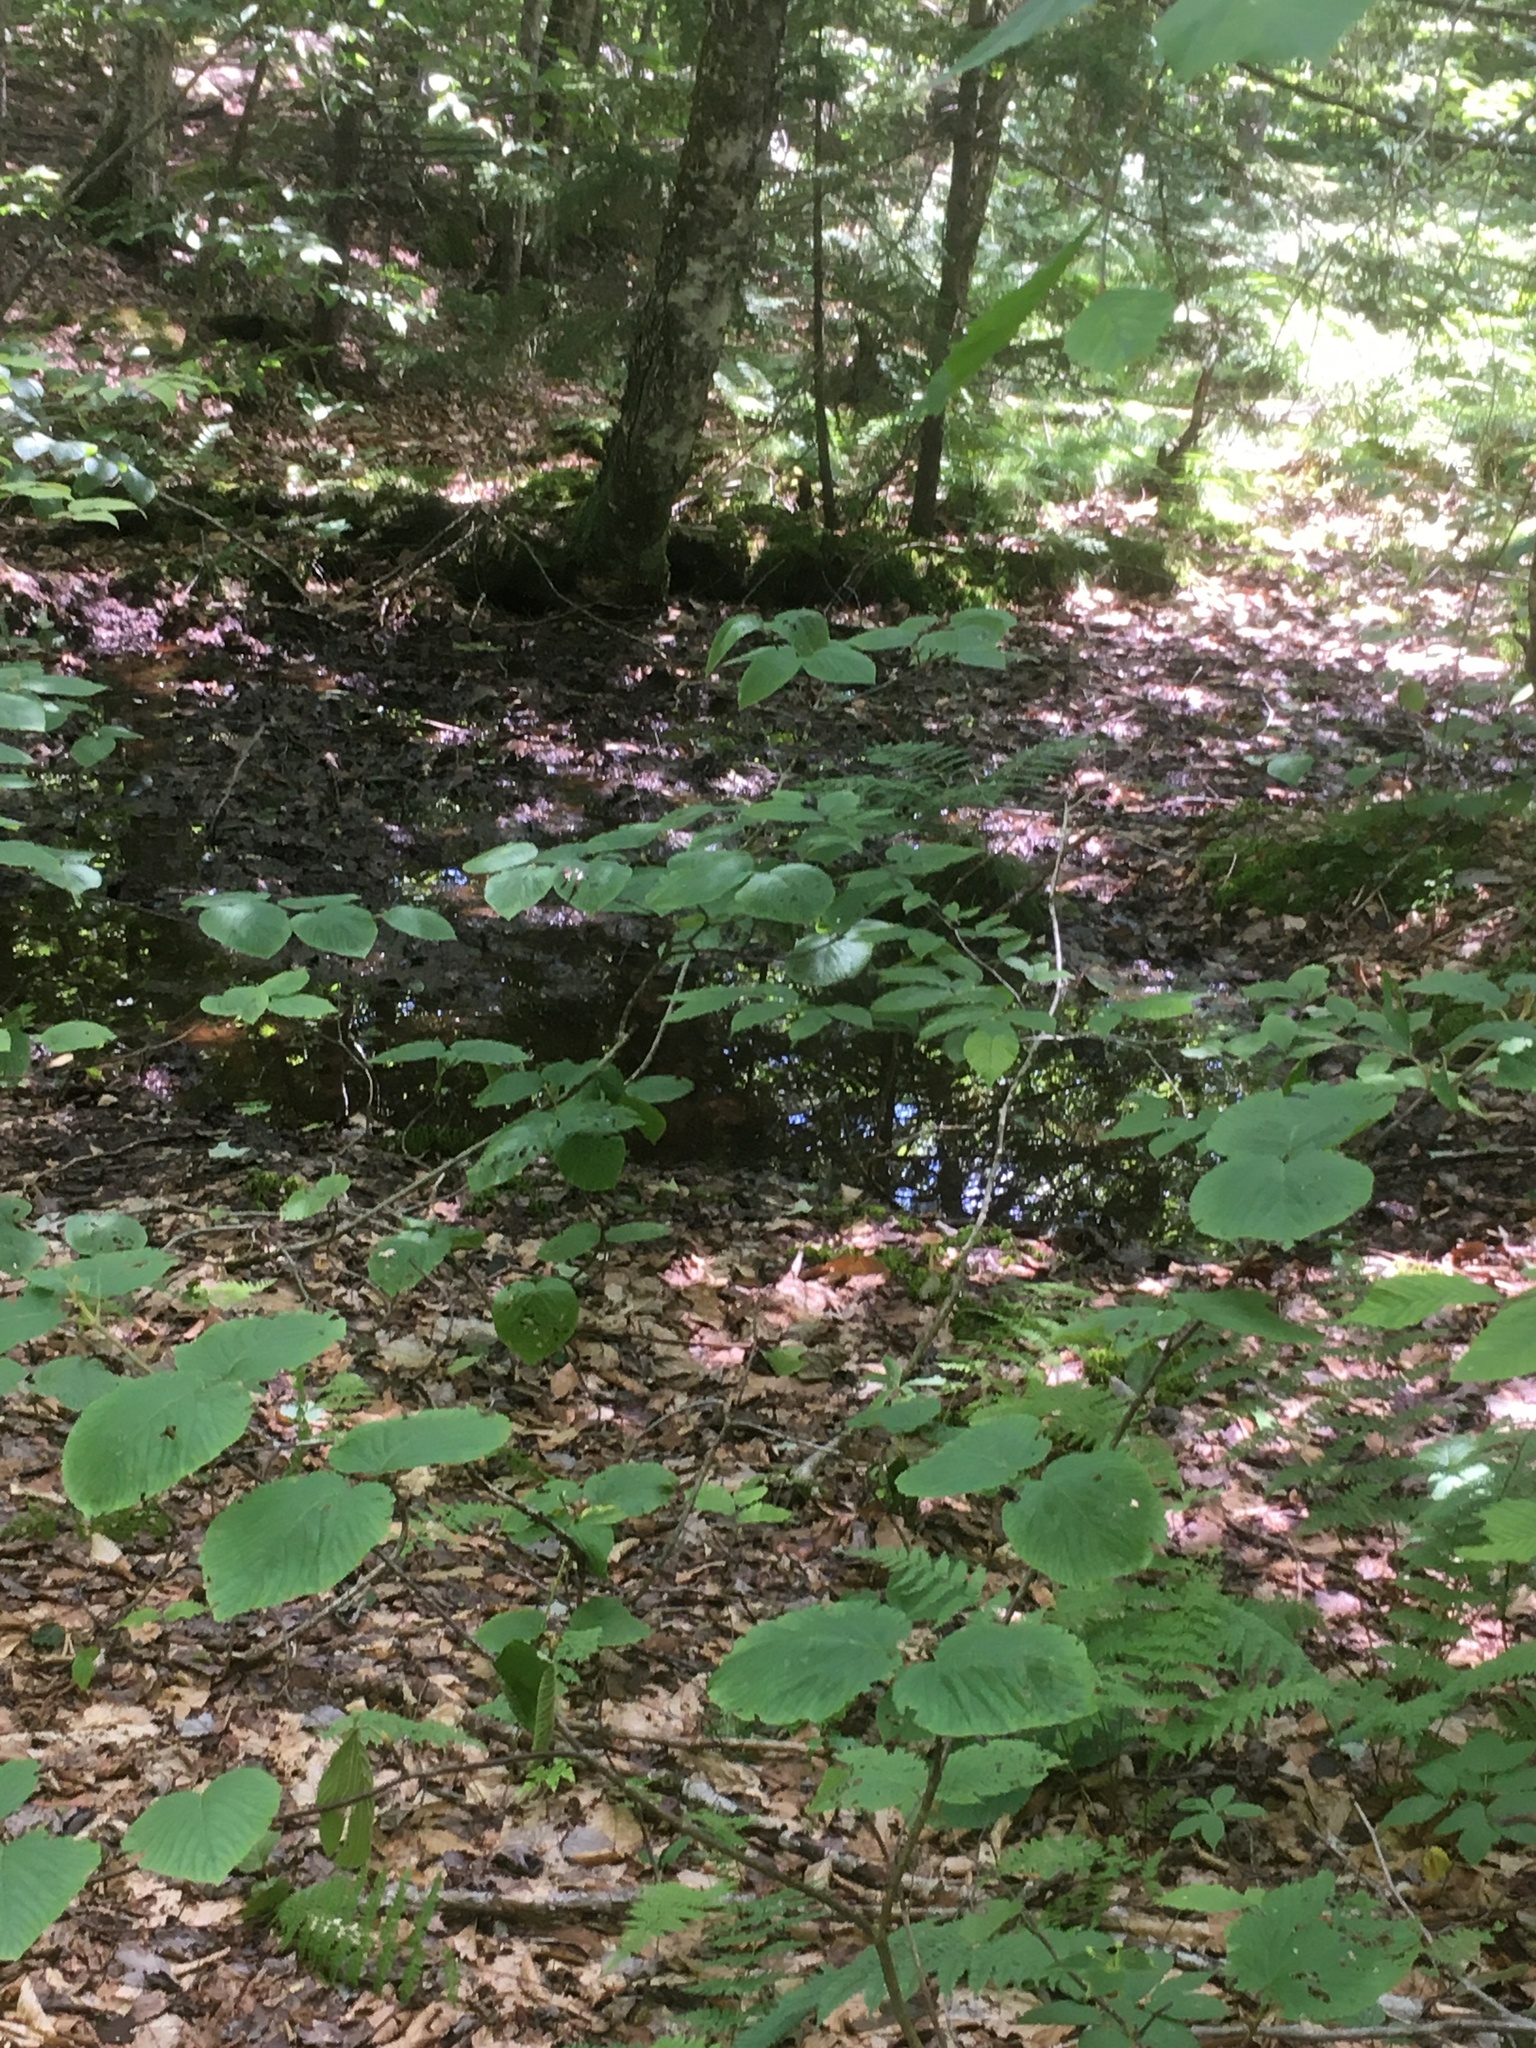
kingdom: Plantae
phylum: Tracheophyta
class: Magnoliopsida
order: Dipsacales
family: Viburnaceae
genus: Viburnum
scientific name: Viburnum lantanoides
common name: Hobblebush
